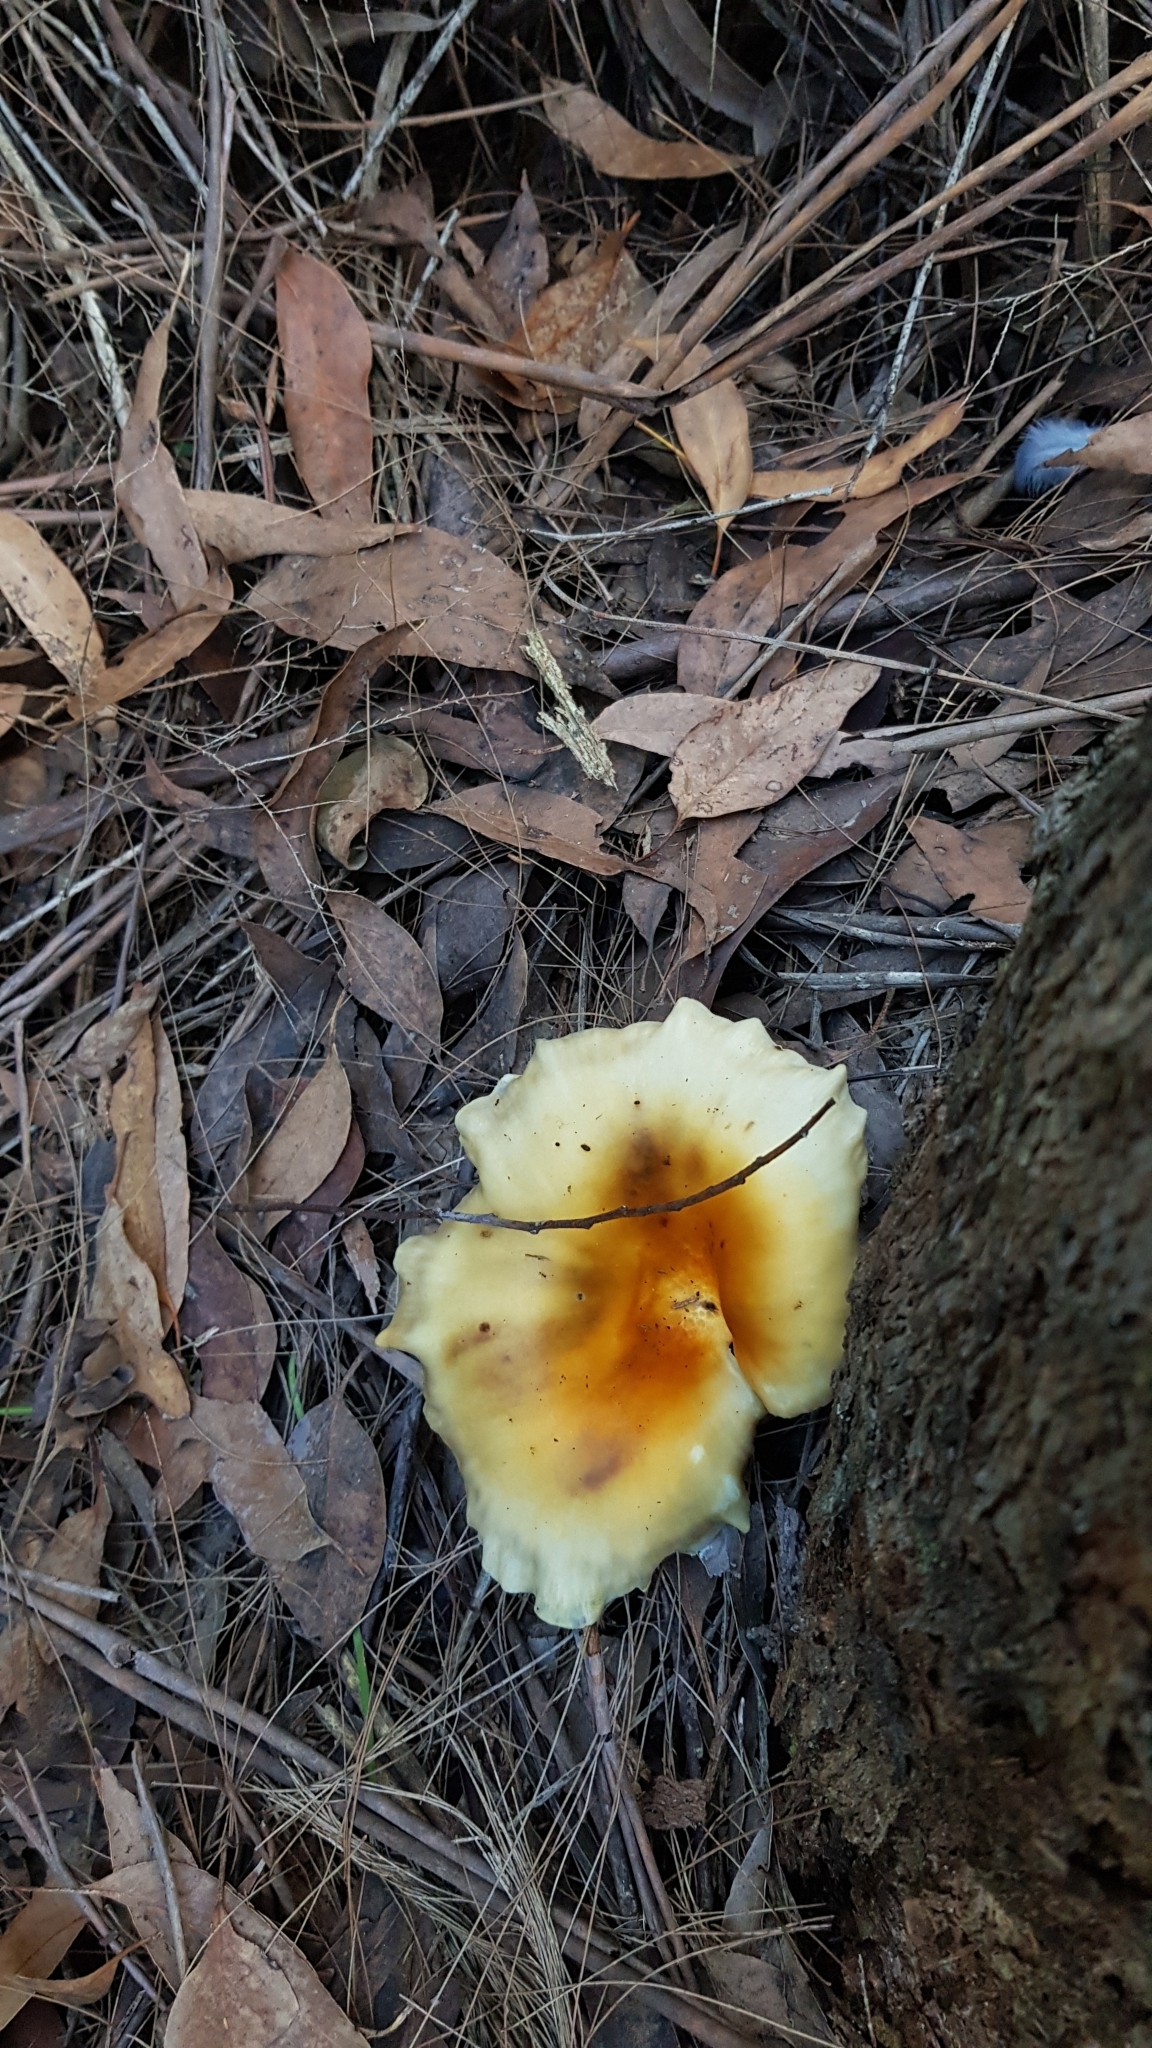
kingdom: Fungi
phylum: Basidiomycota
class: Agaricomycetes
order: Agaricales
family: Omphalotaceae
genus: Omphalotus
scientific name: Omphalotus nidiformis
